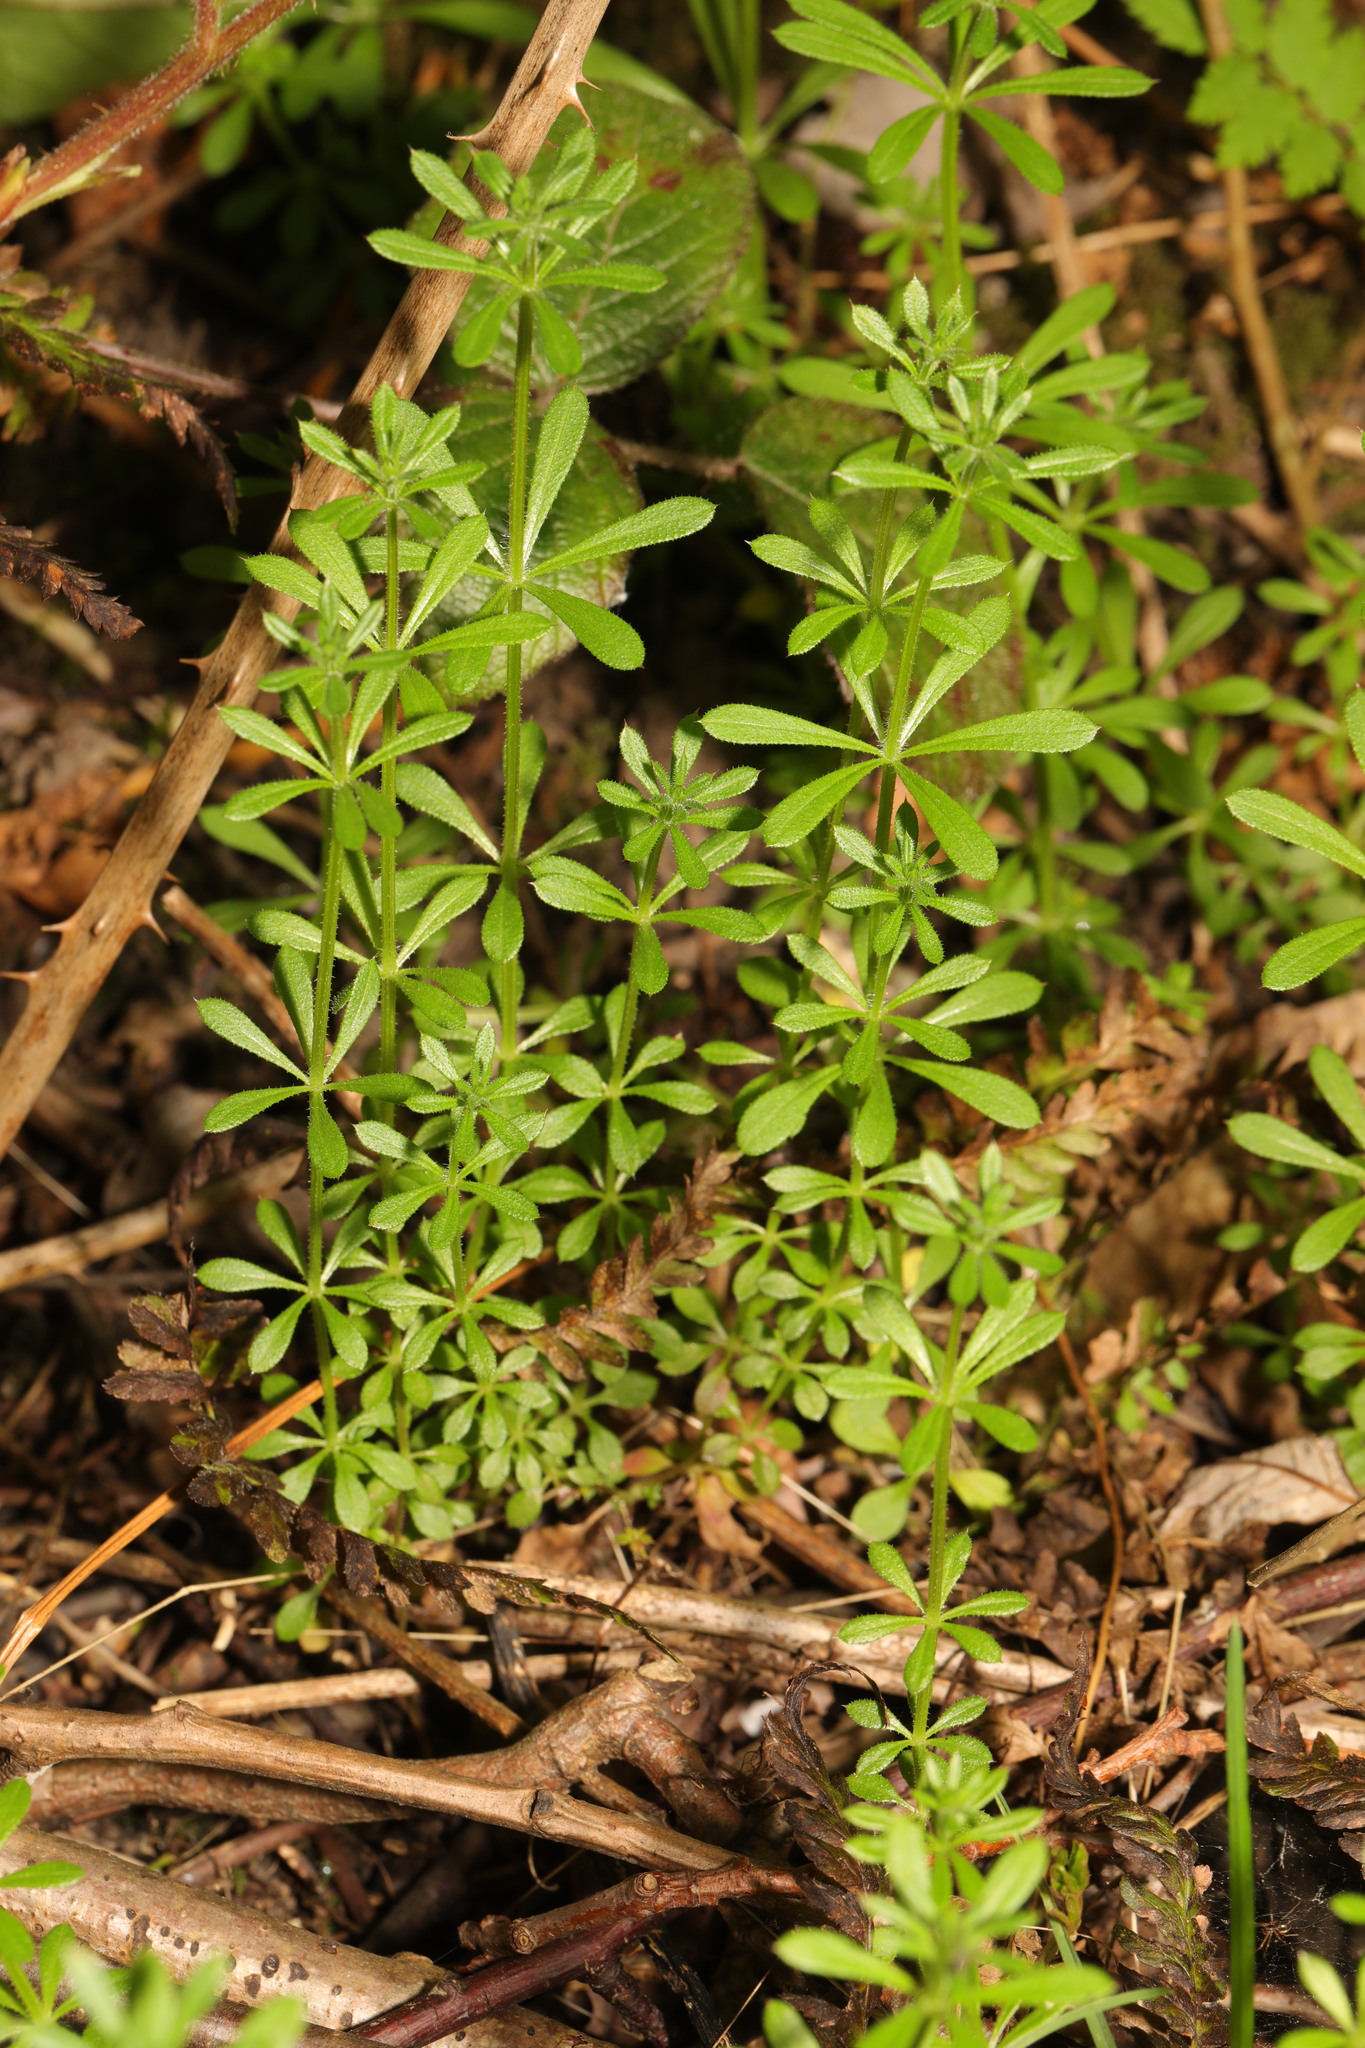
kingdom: Plantae
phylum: Tracheophyta
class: Magnoliopsida
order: Gentianales
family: Rubiaceae
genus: Galium
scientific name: Galium aparine
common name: Cleavers
